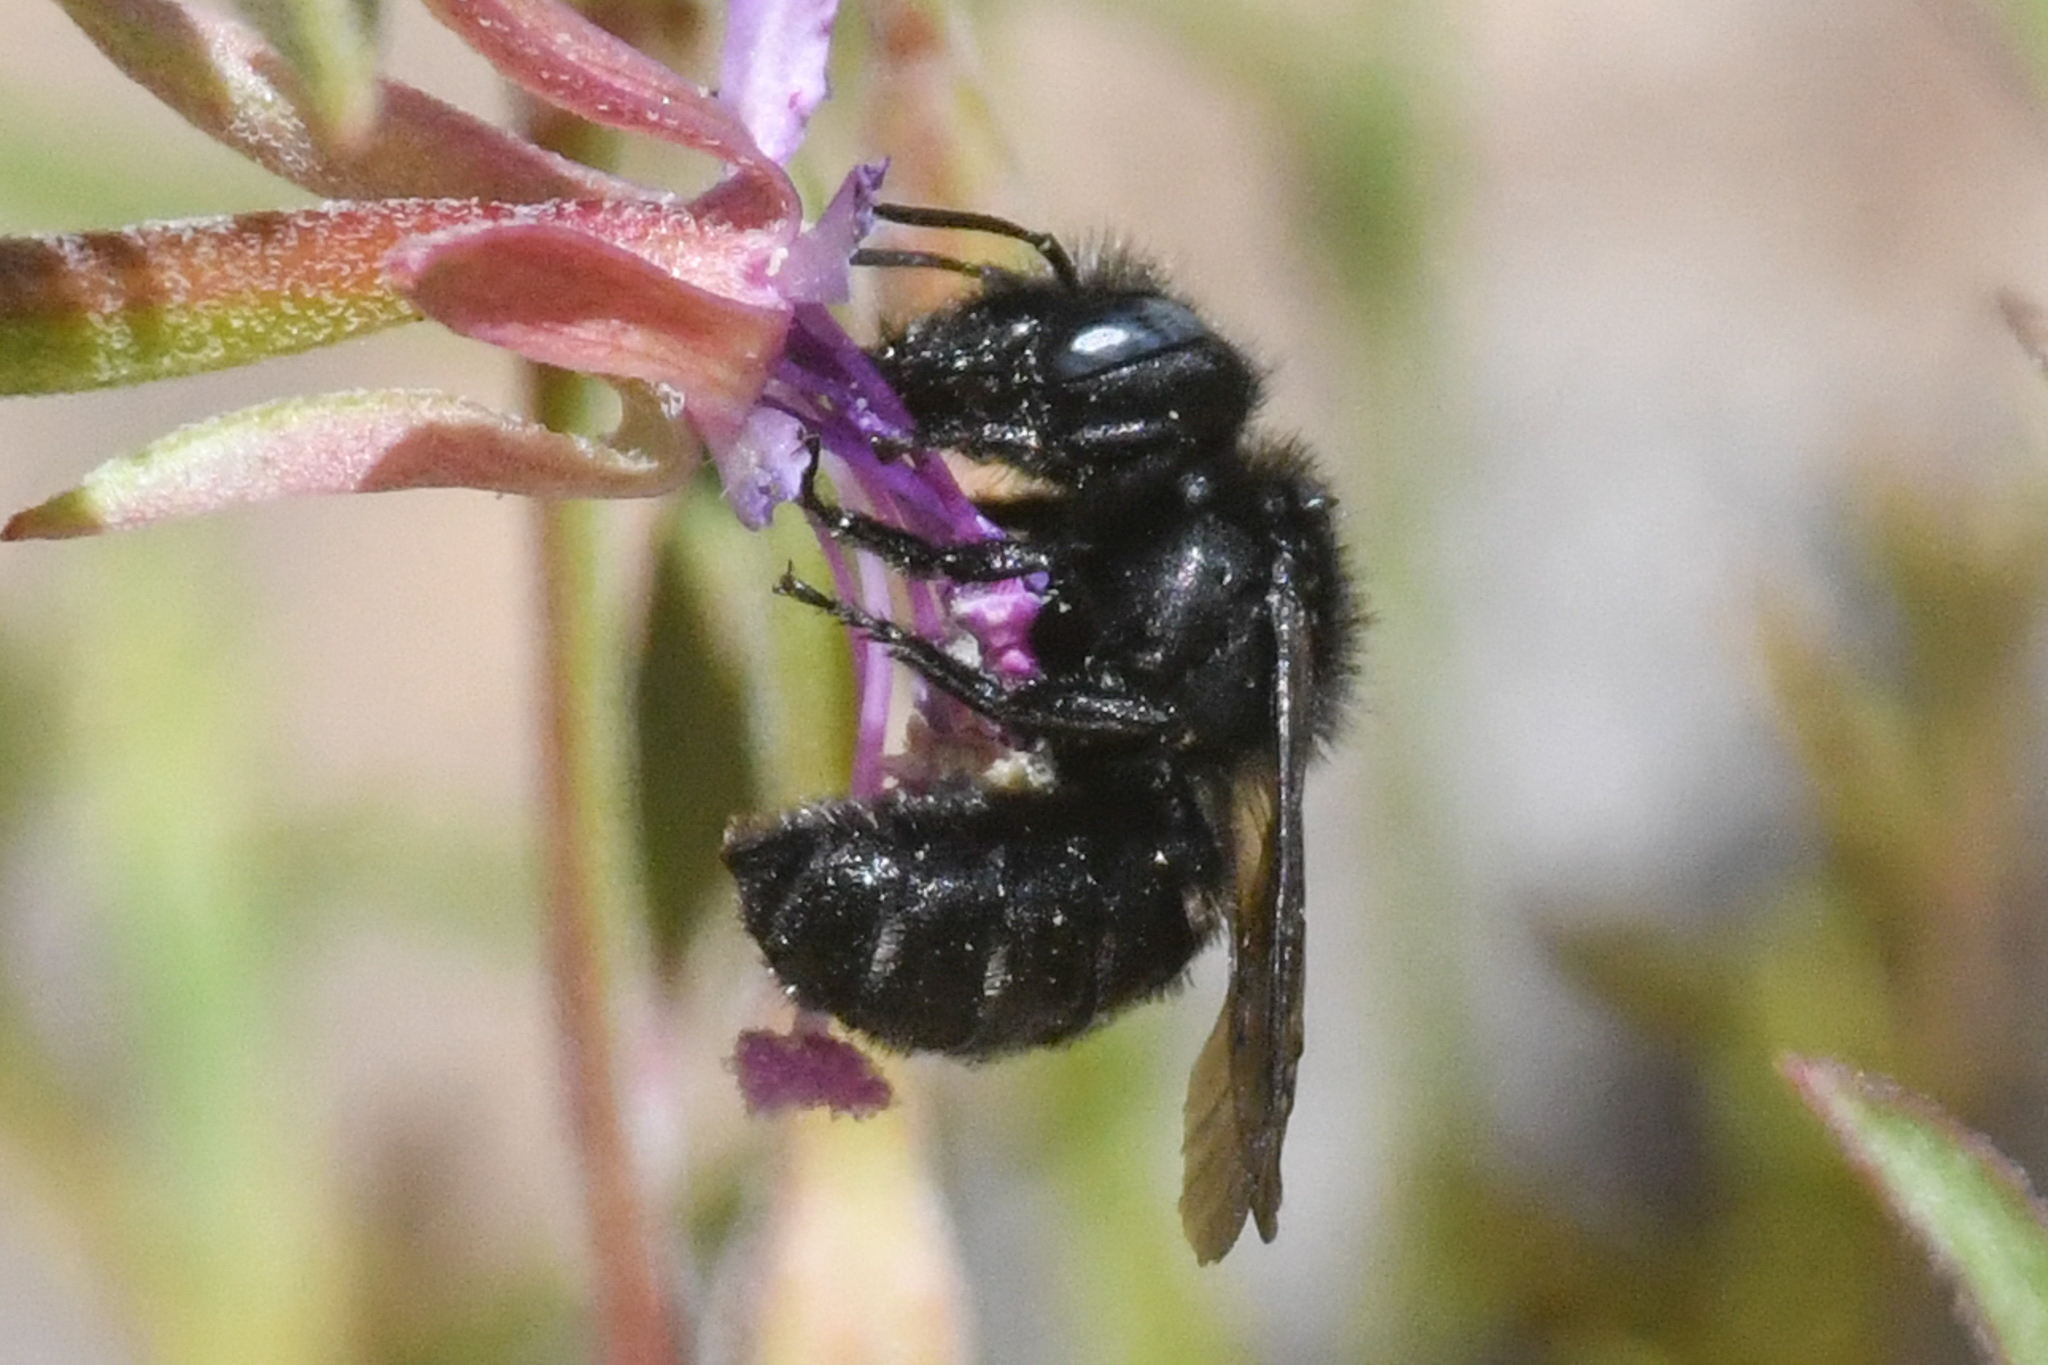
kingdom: Animalia
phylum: Arthropoda
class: Insecta
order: Hymenoptera
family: Megachilidae
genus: Hoplitis
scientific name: Hoplitis albifrons
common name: White-fronted small-mason
